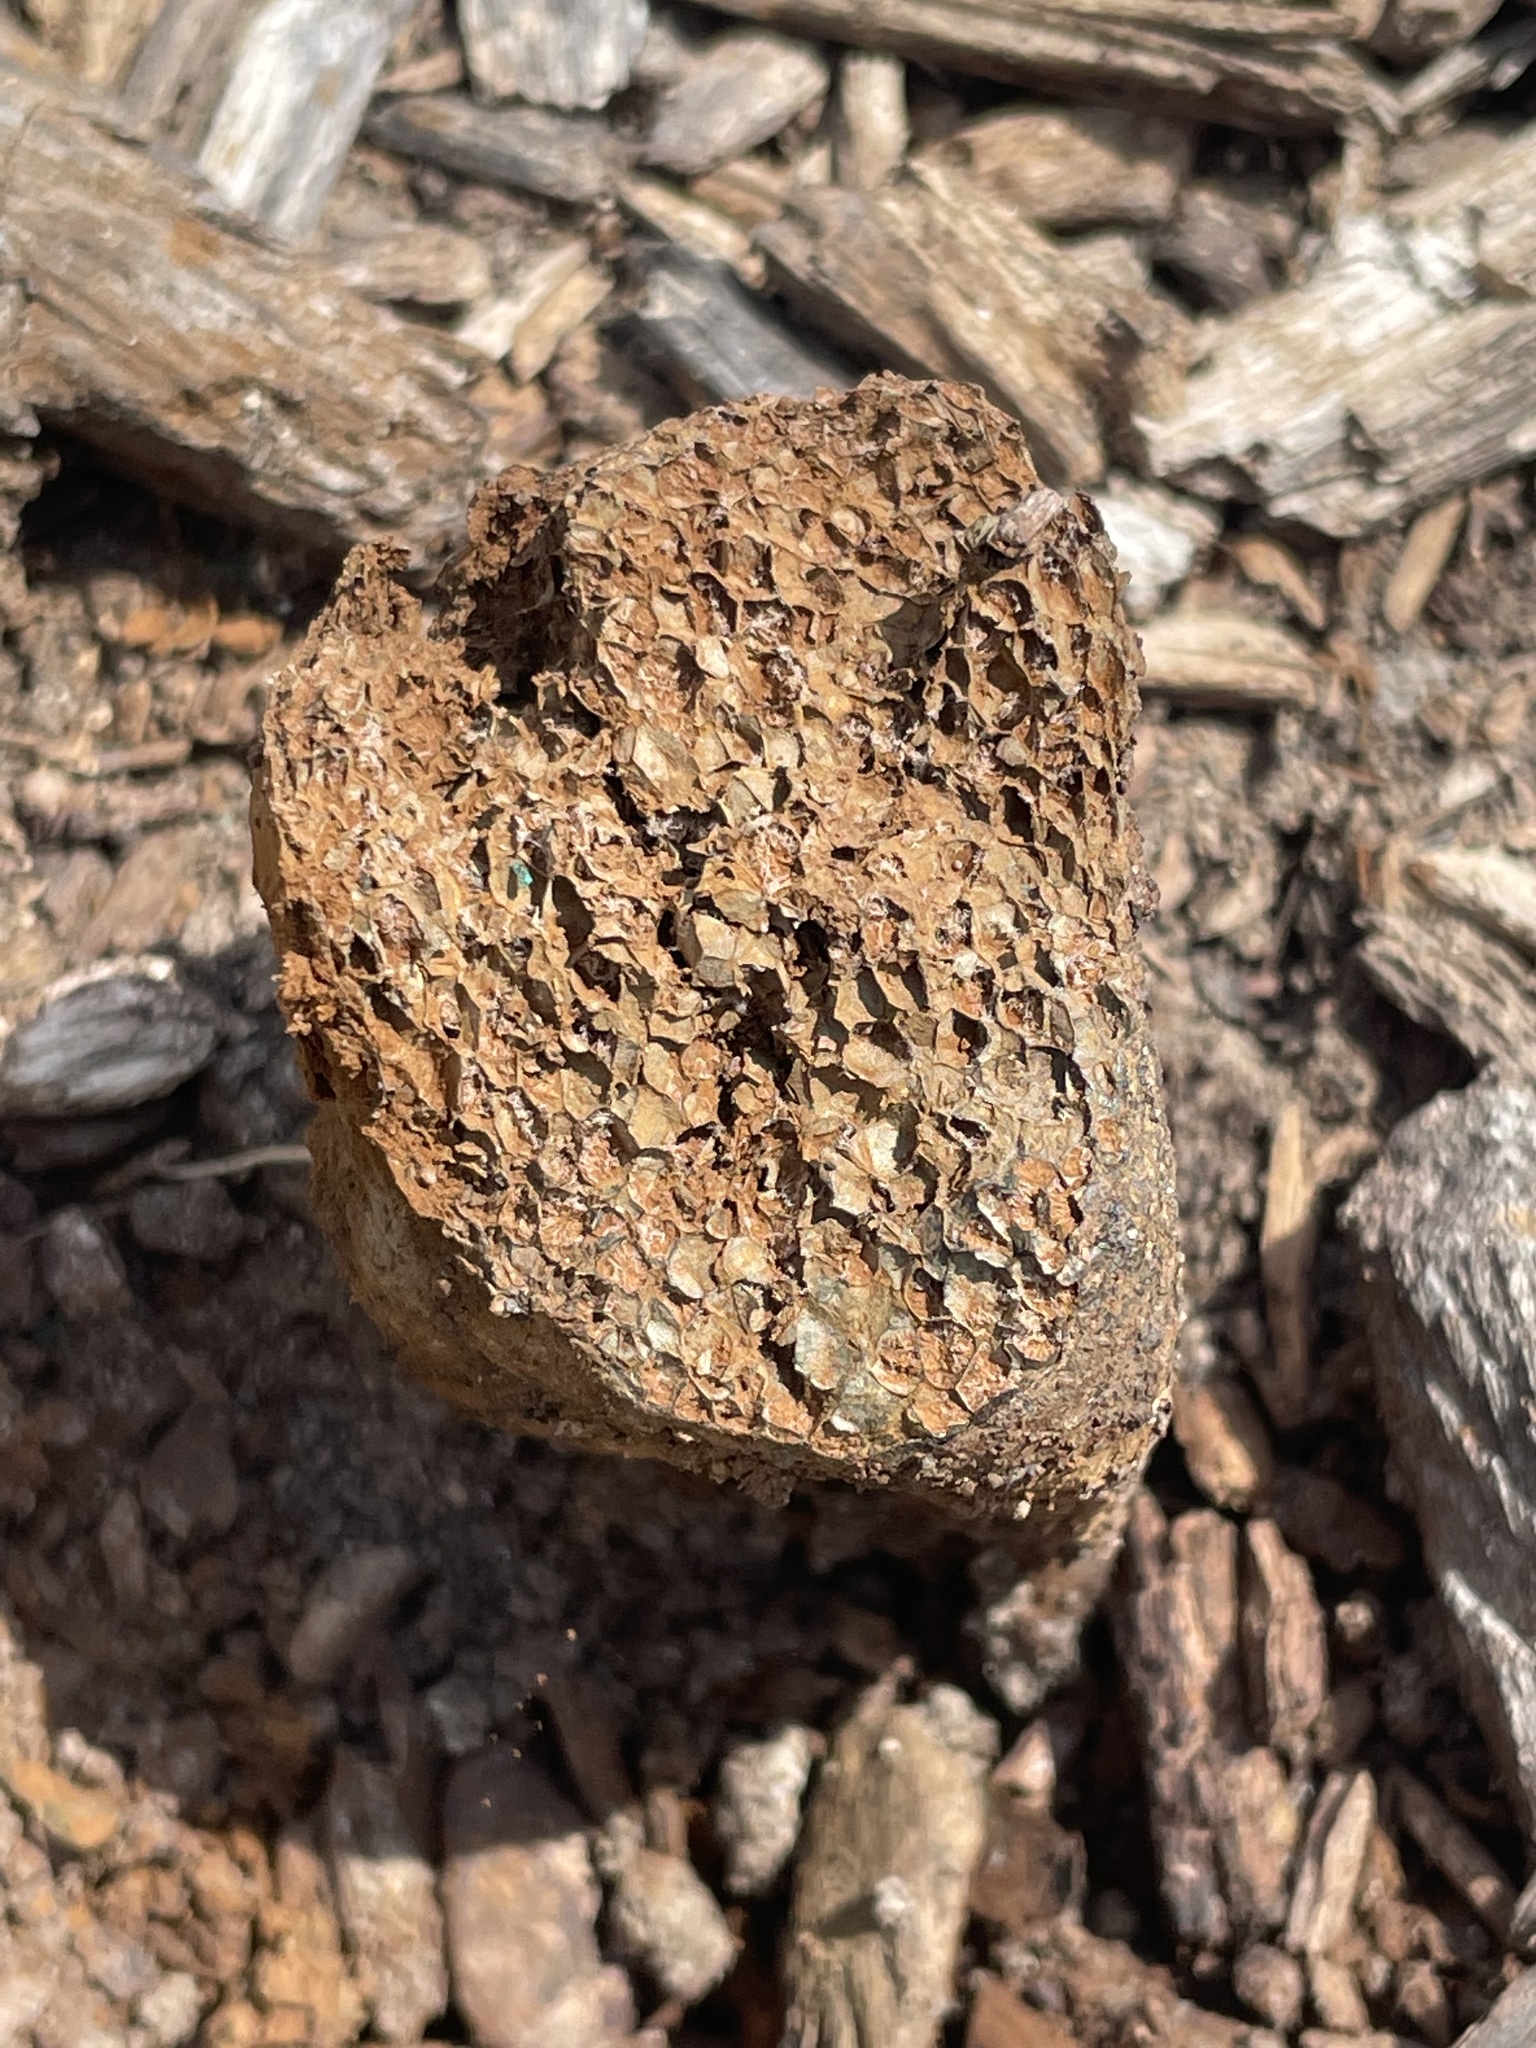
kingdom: Fungi
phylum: Basidiomycota
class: Agaricomycetes
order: Boletales
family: Sclerodermataceae
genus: Pisolithus
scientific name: Pisolithus tinctorius
